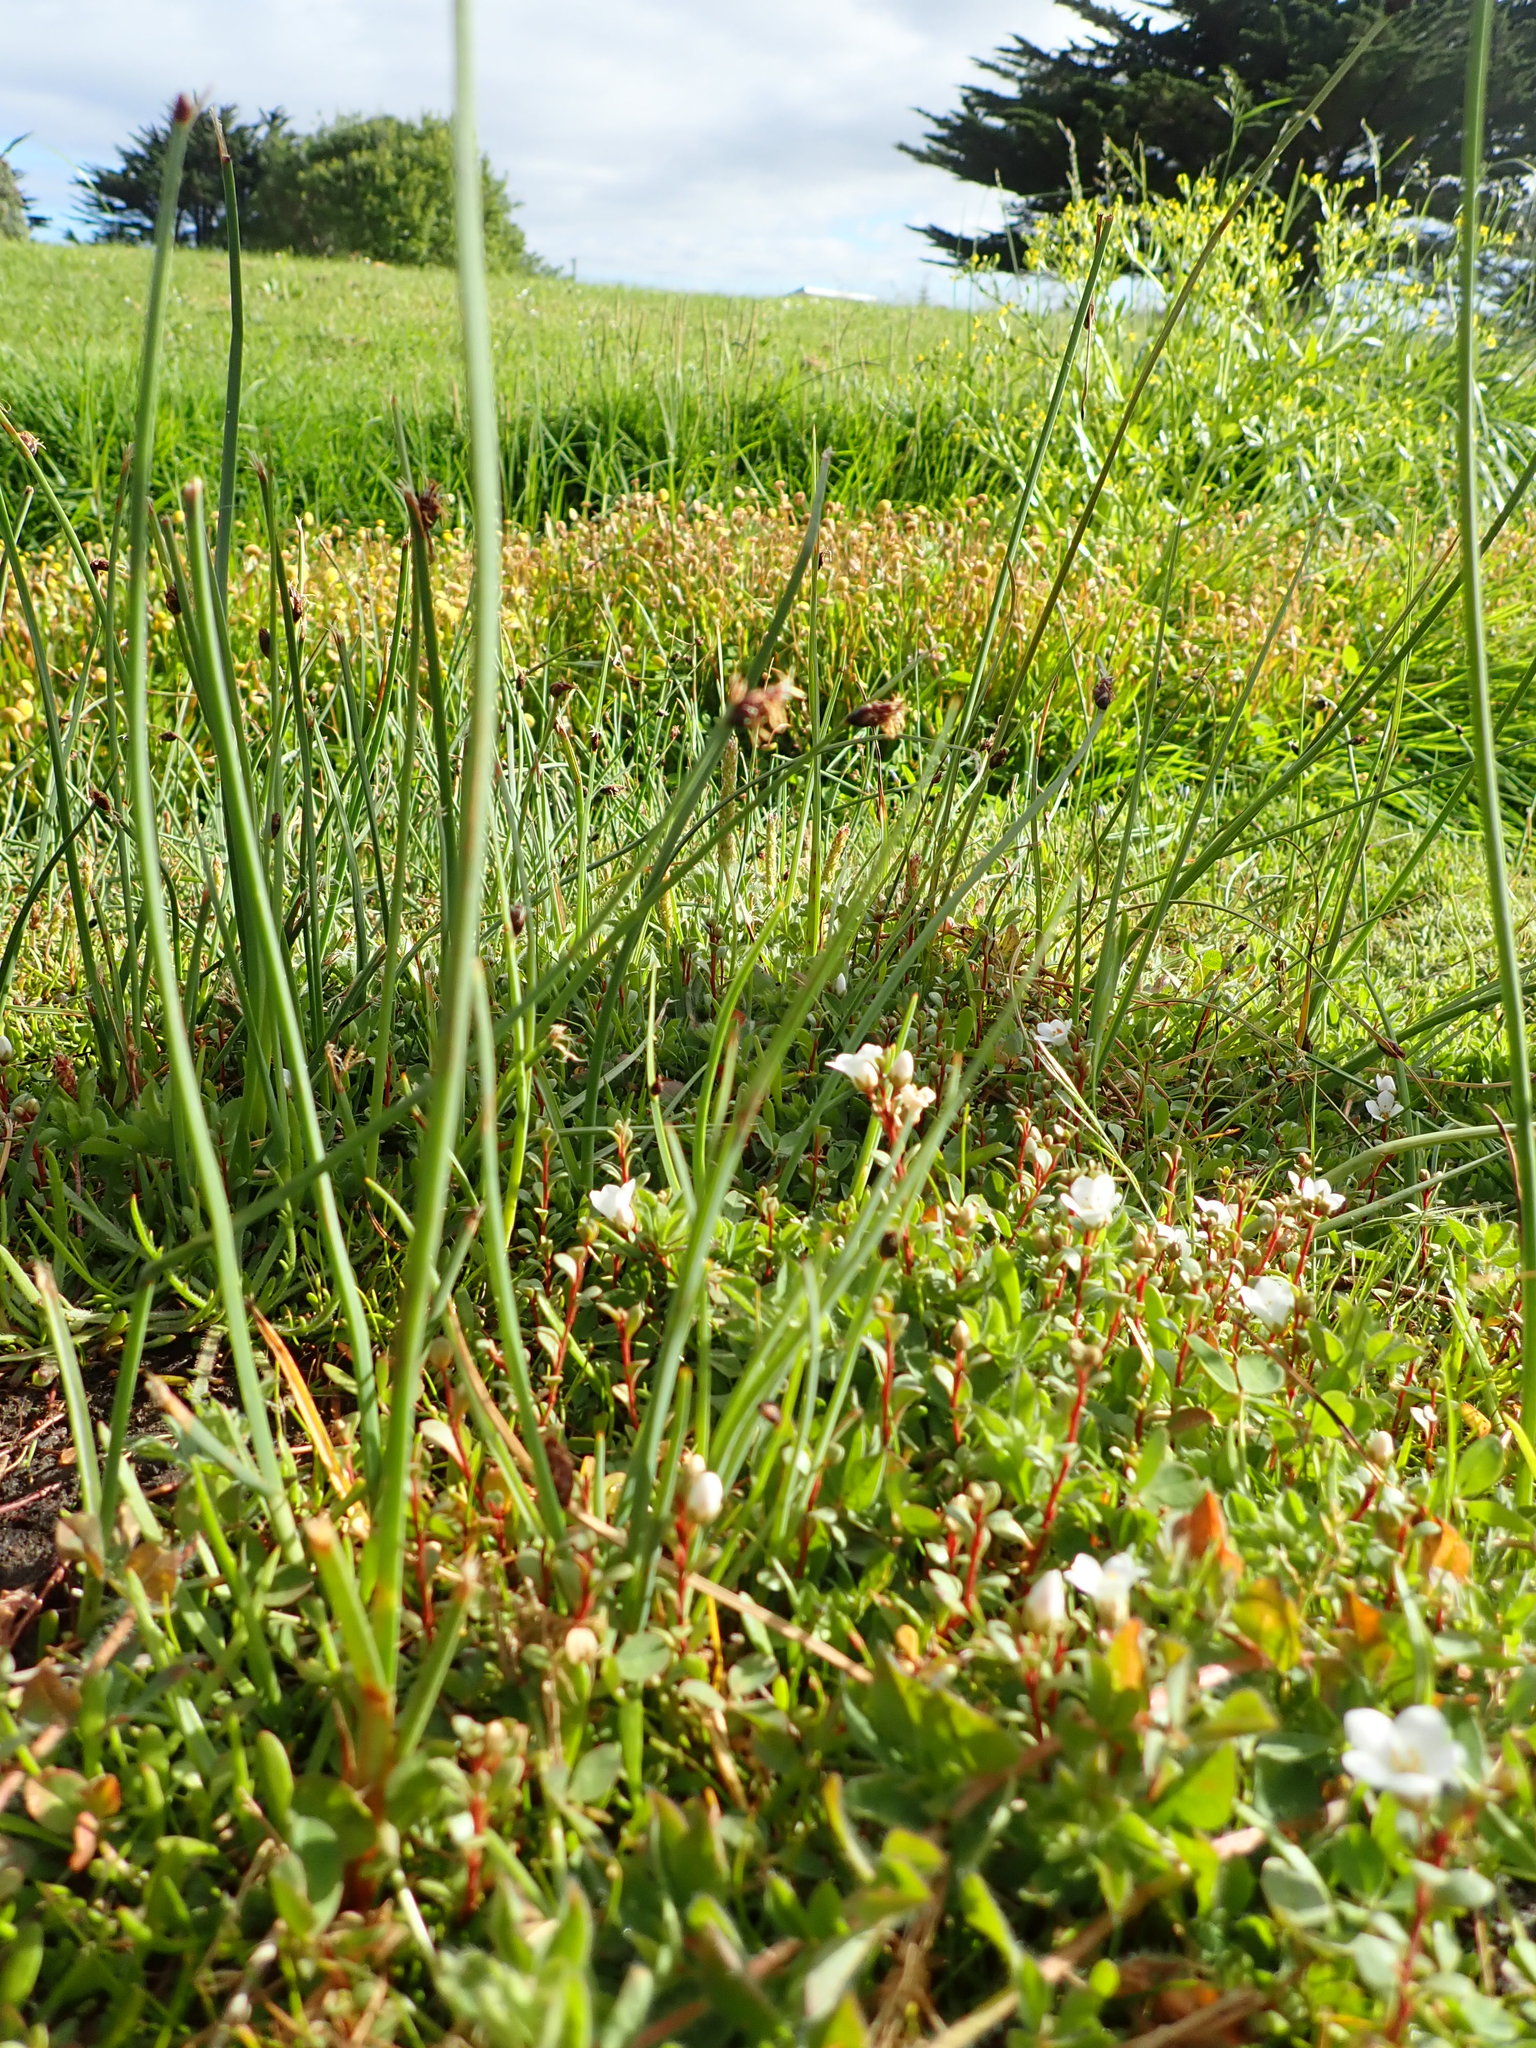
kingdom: Plantae
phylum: Tracheophyta
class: Magnoliopsida
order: Ericales
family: Primulaceae
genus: Samolus
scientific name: Samolus repens
